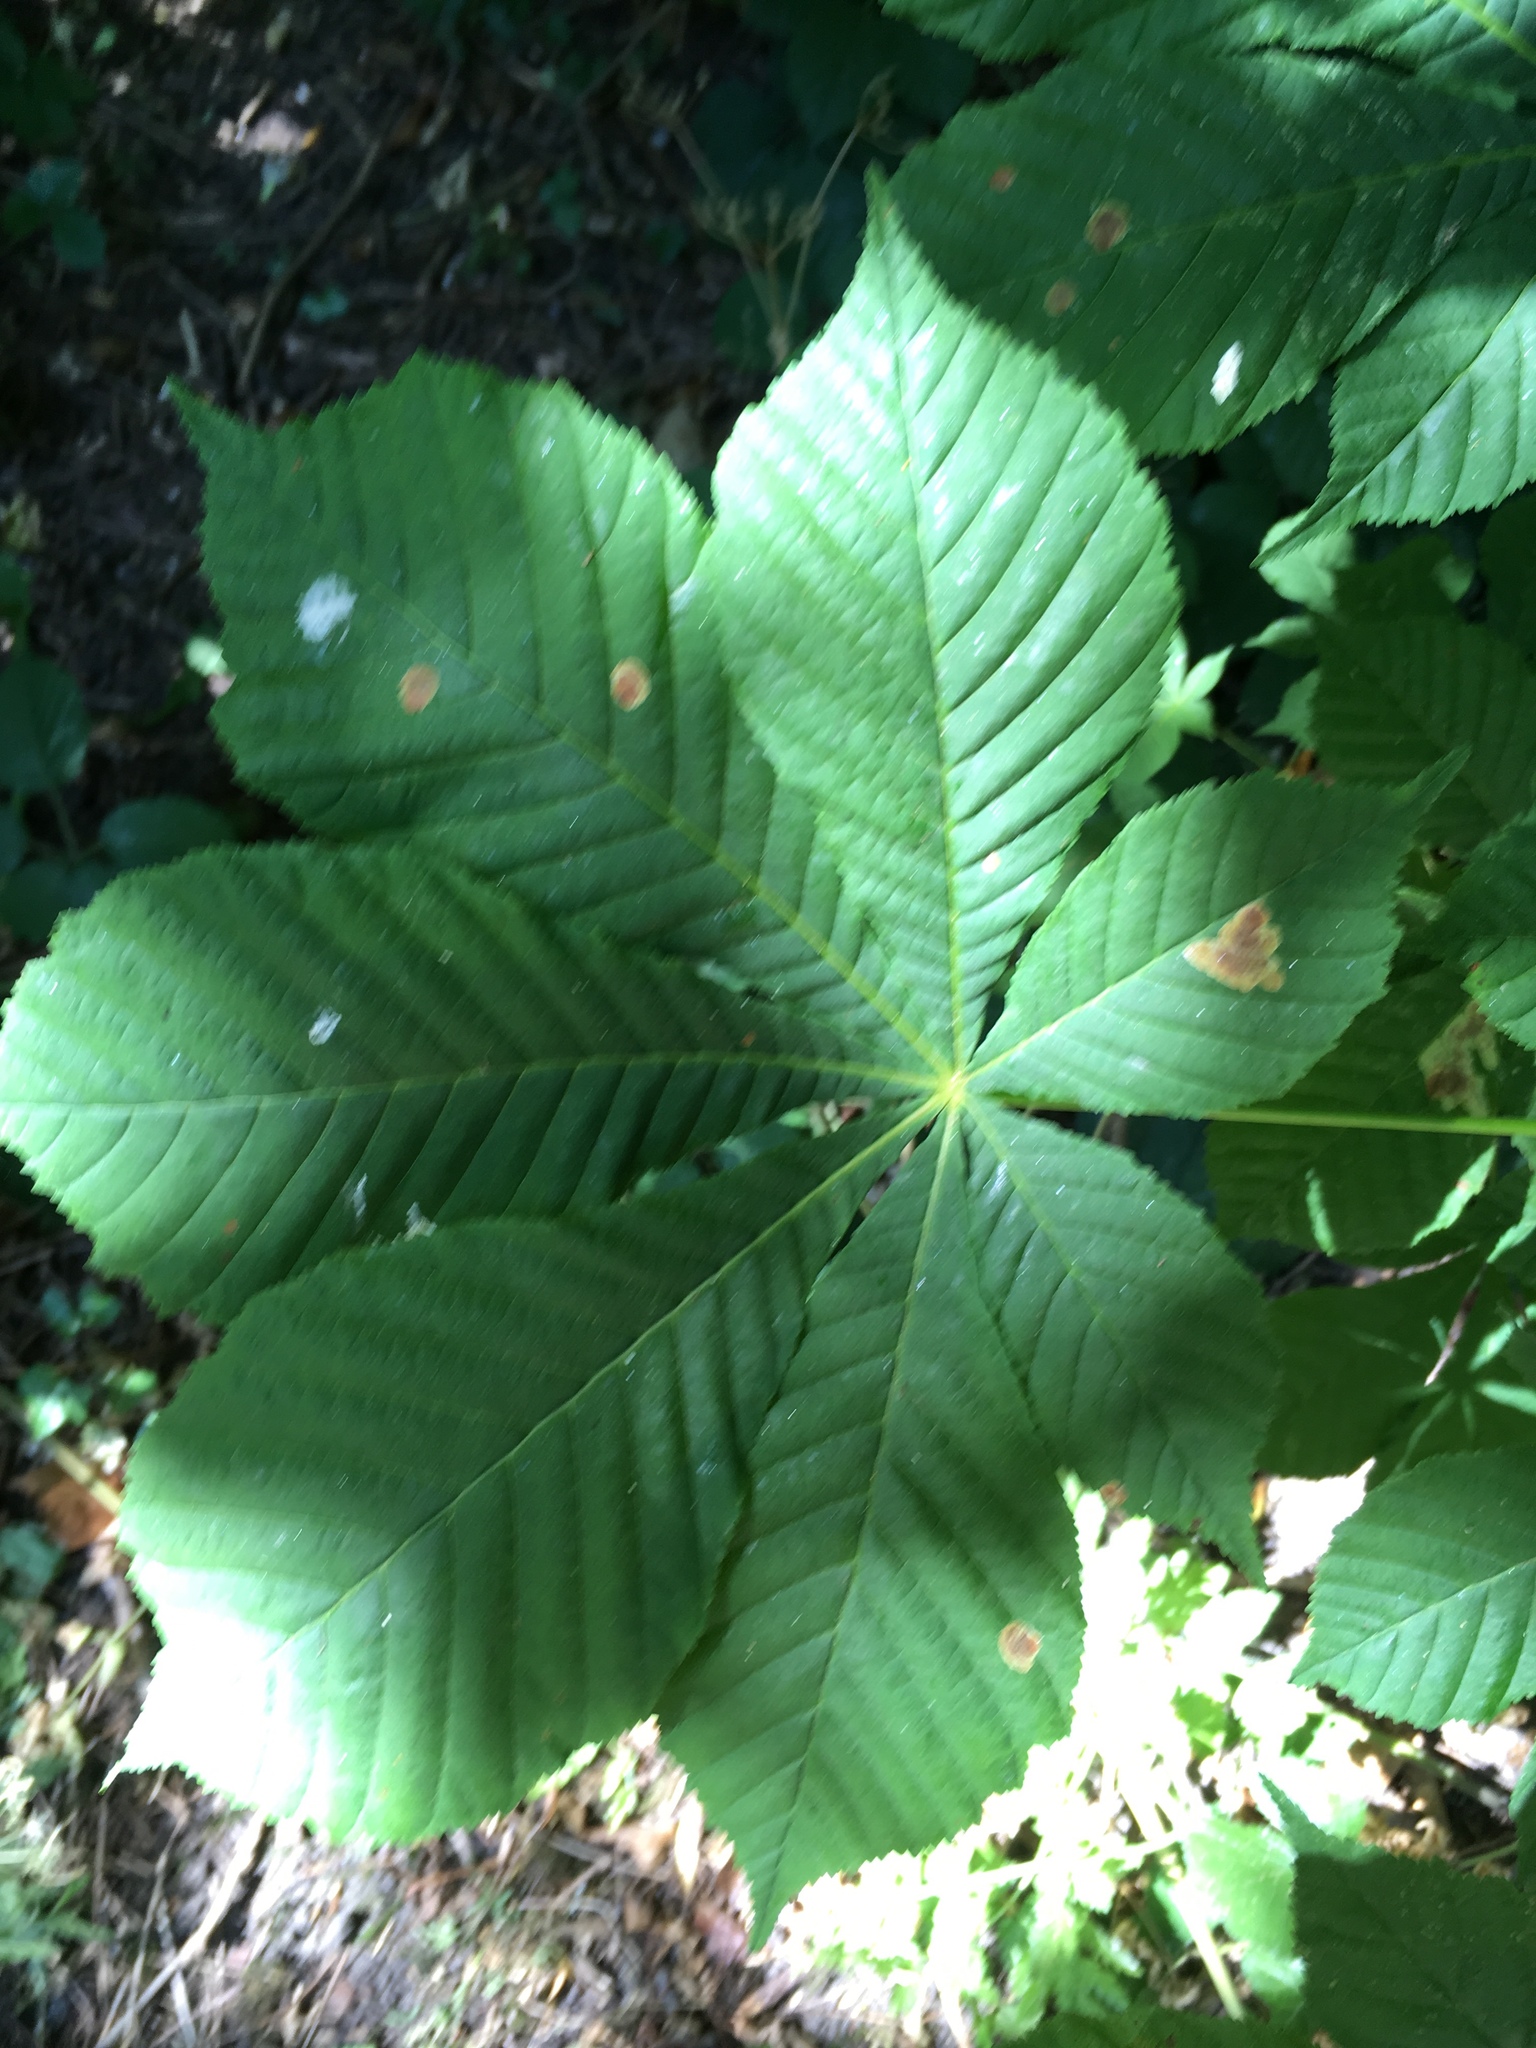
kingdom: Plantae
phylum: Tracheophyta
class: Magnoliopsida
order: Sapindales
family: Sapindaceae
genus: Aesculus
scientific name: Aesculus hippocastanum
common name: Horse-chestnut
